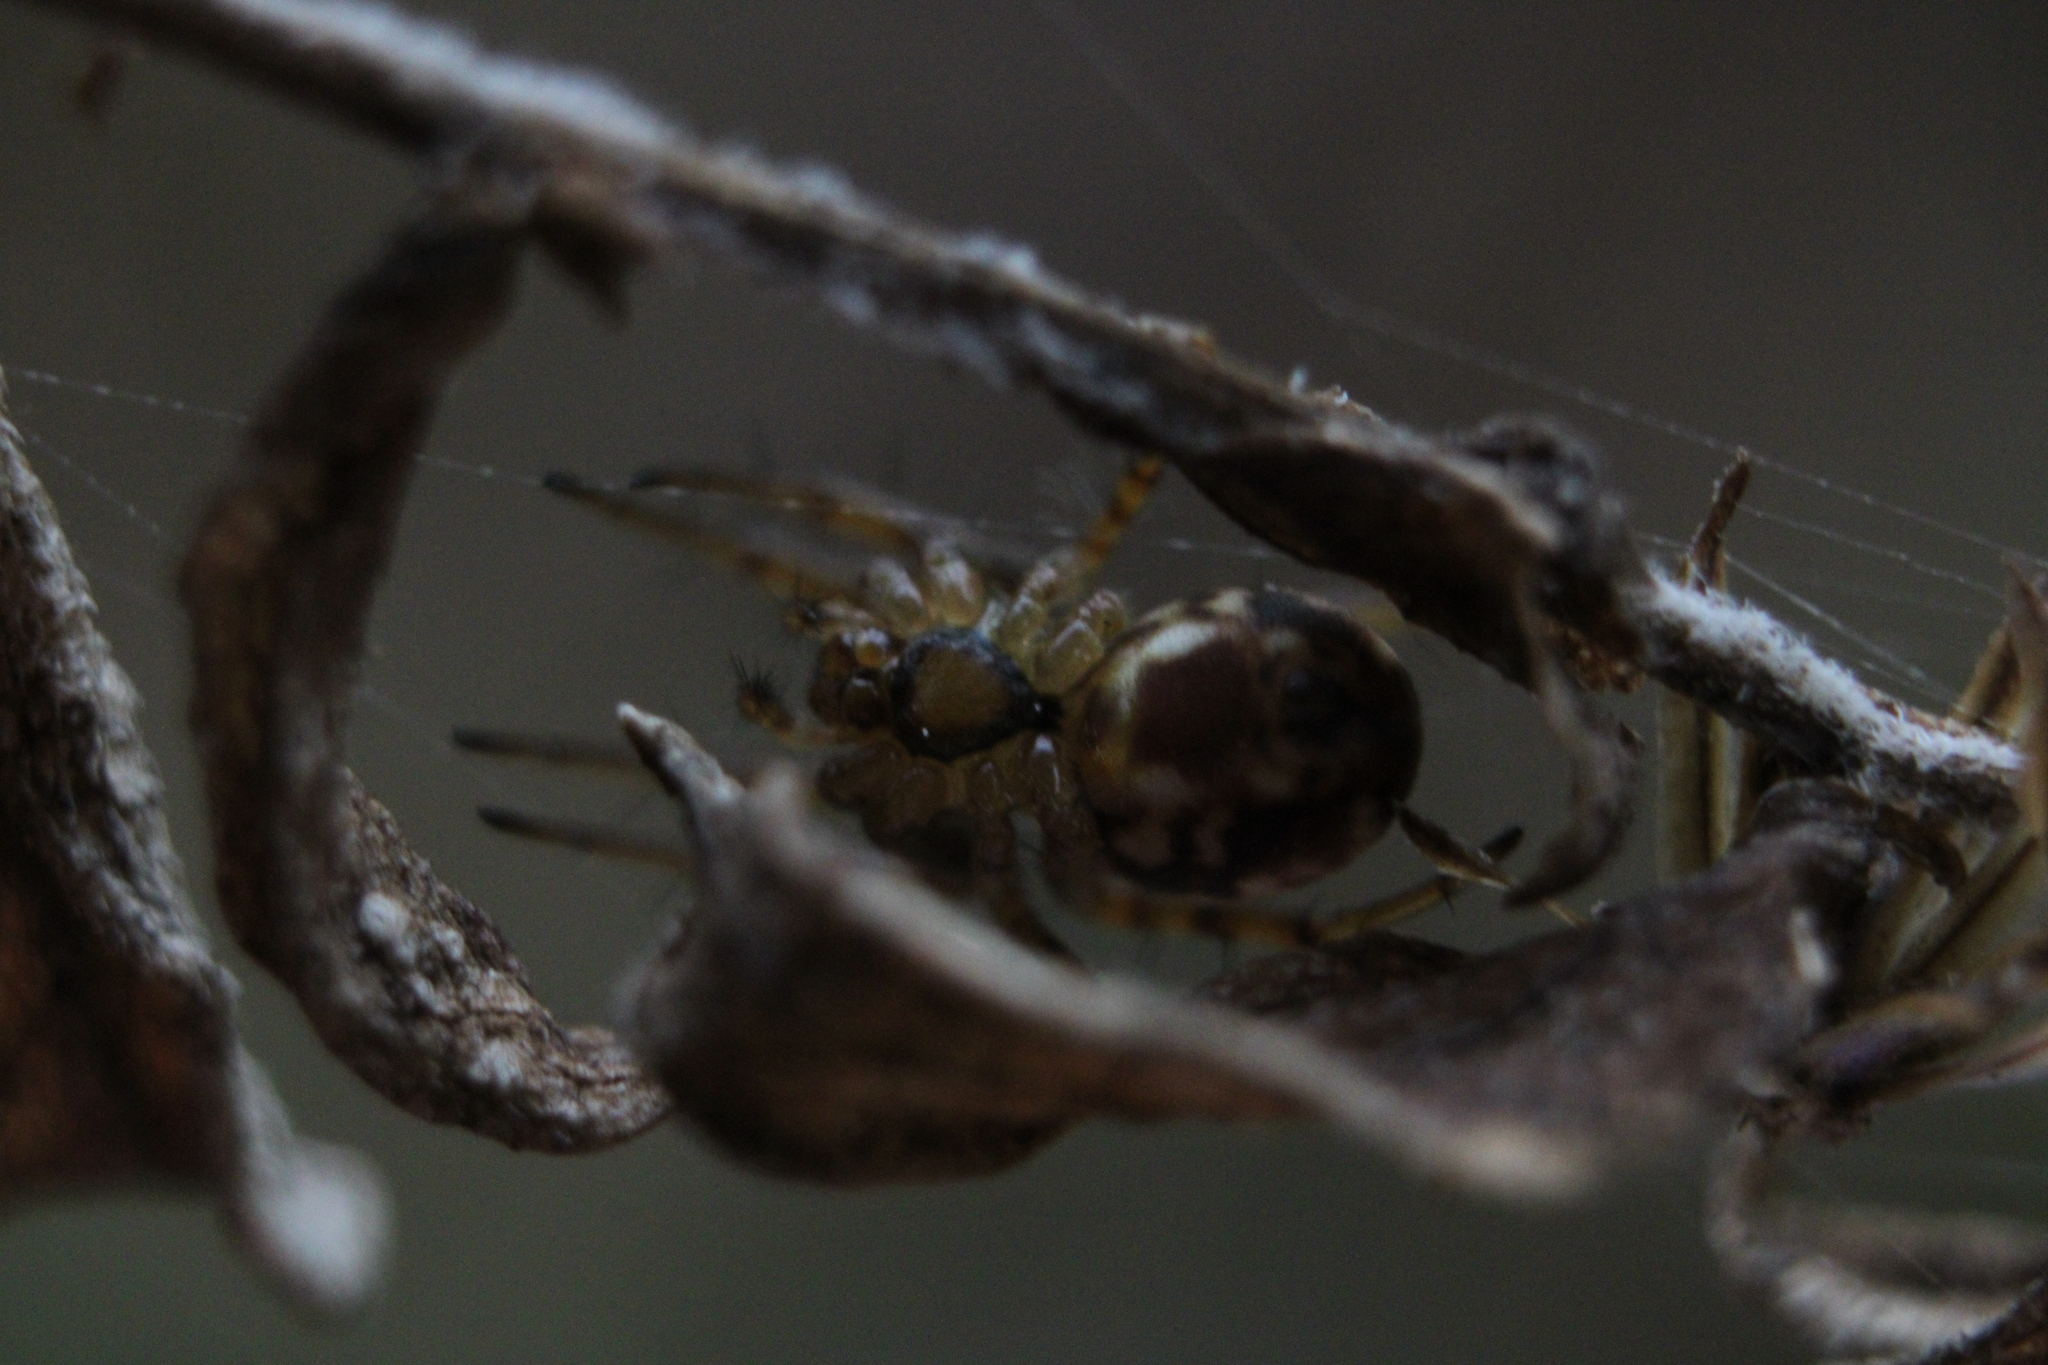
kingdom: Animalia
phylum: Arthropoda
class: Arachnida
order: Araneae
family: Araneidae
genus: Mangora
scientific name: Mangora placida
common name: Tuft-legged orbweaver
